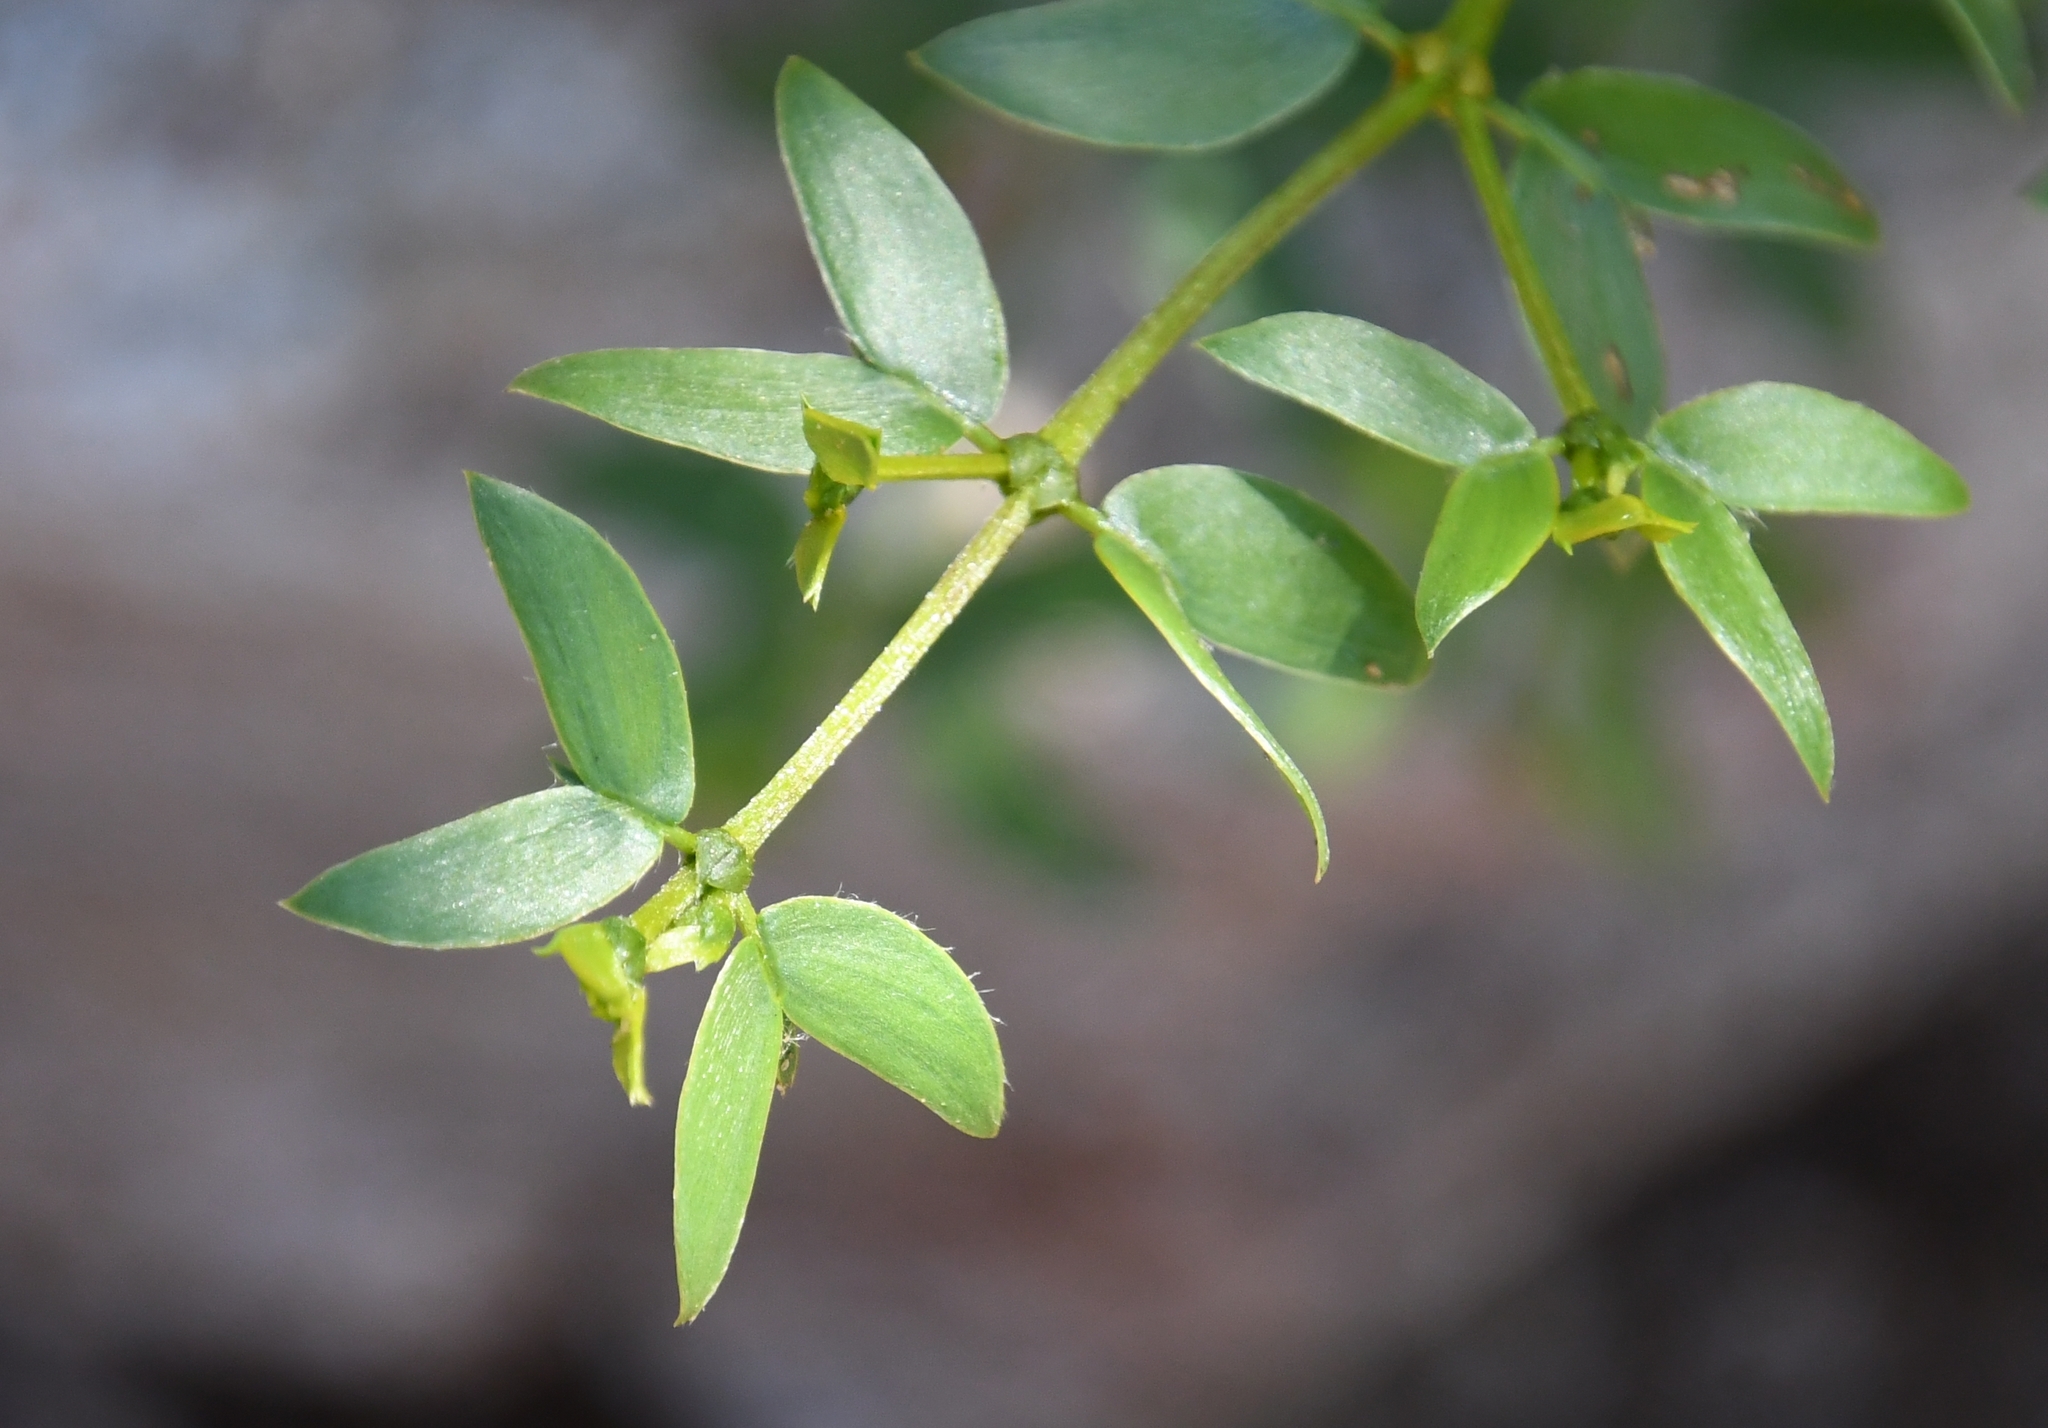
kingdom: Plantae
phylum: Tracheophyta
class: Magnoliopsida
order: Zygophyllales
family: Zygophyllaceae
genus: Larrea
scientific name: Larrea tridentata
